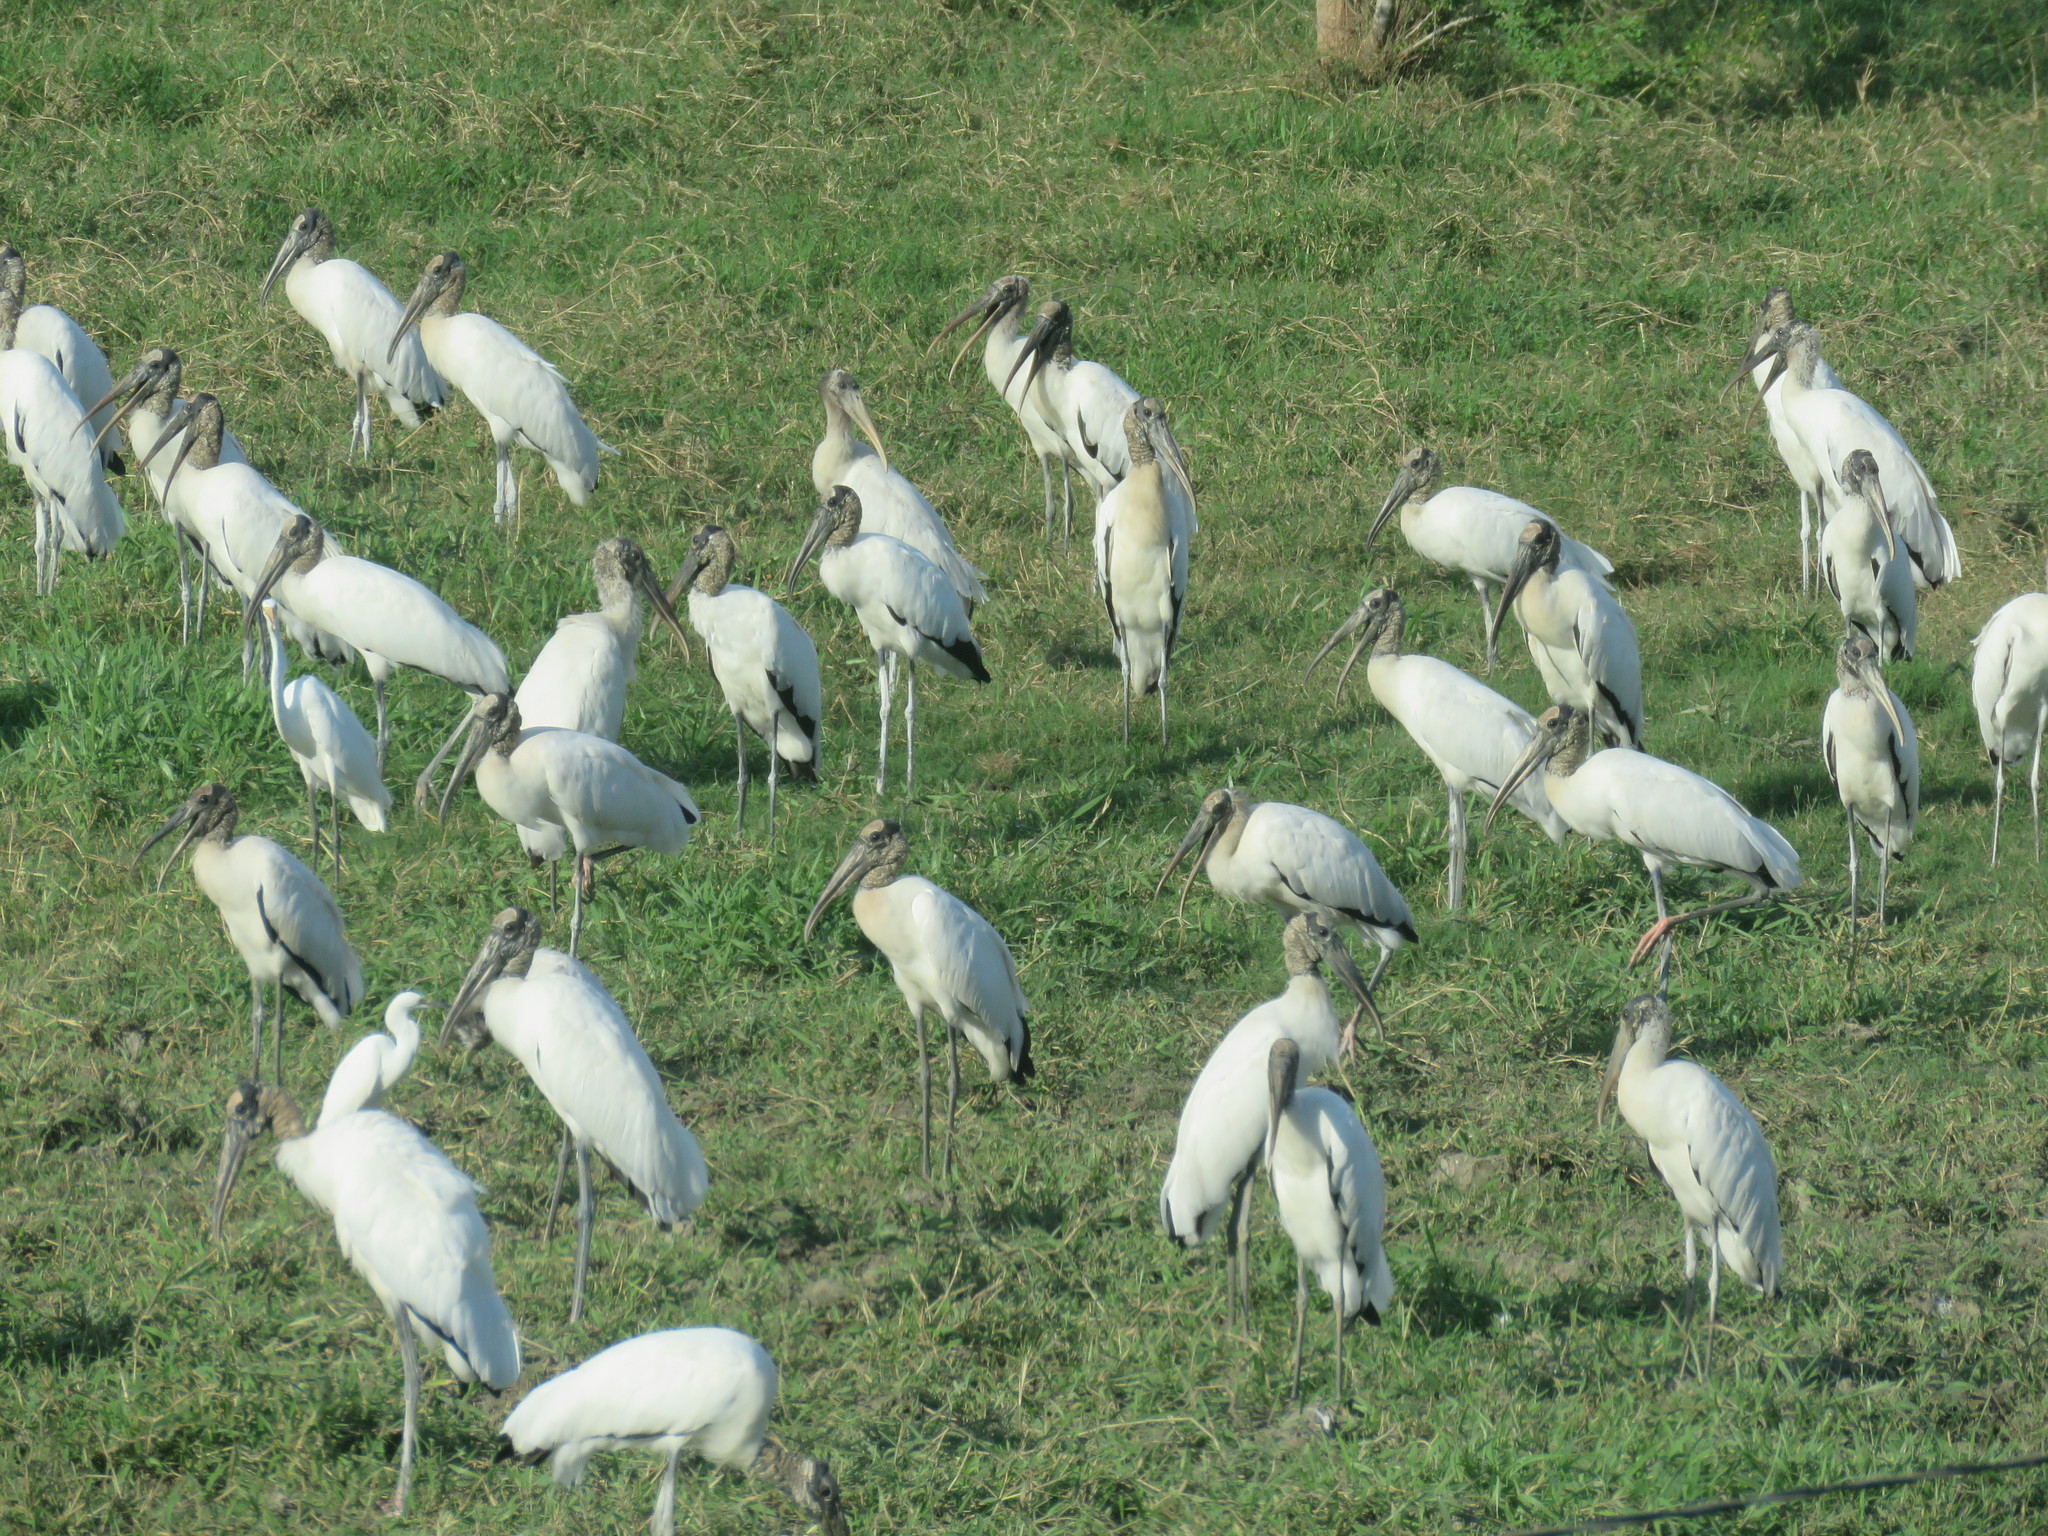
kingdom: Animalia
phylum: Chordata
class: Aves
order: Ciconiiformes
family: Ciconiidae
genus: Mycteria
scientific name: Mycteria americana
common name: Wood stork
